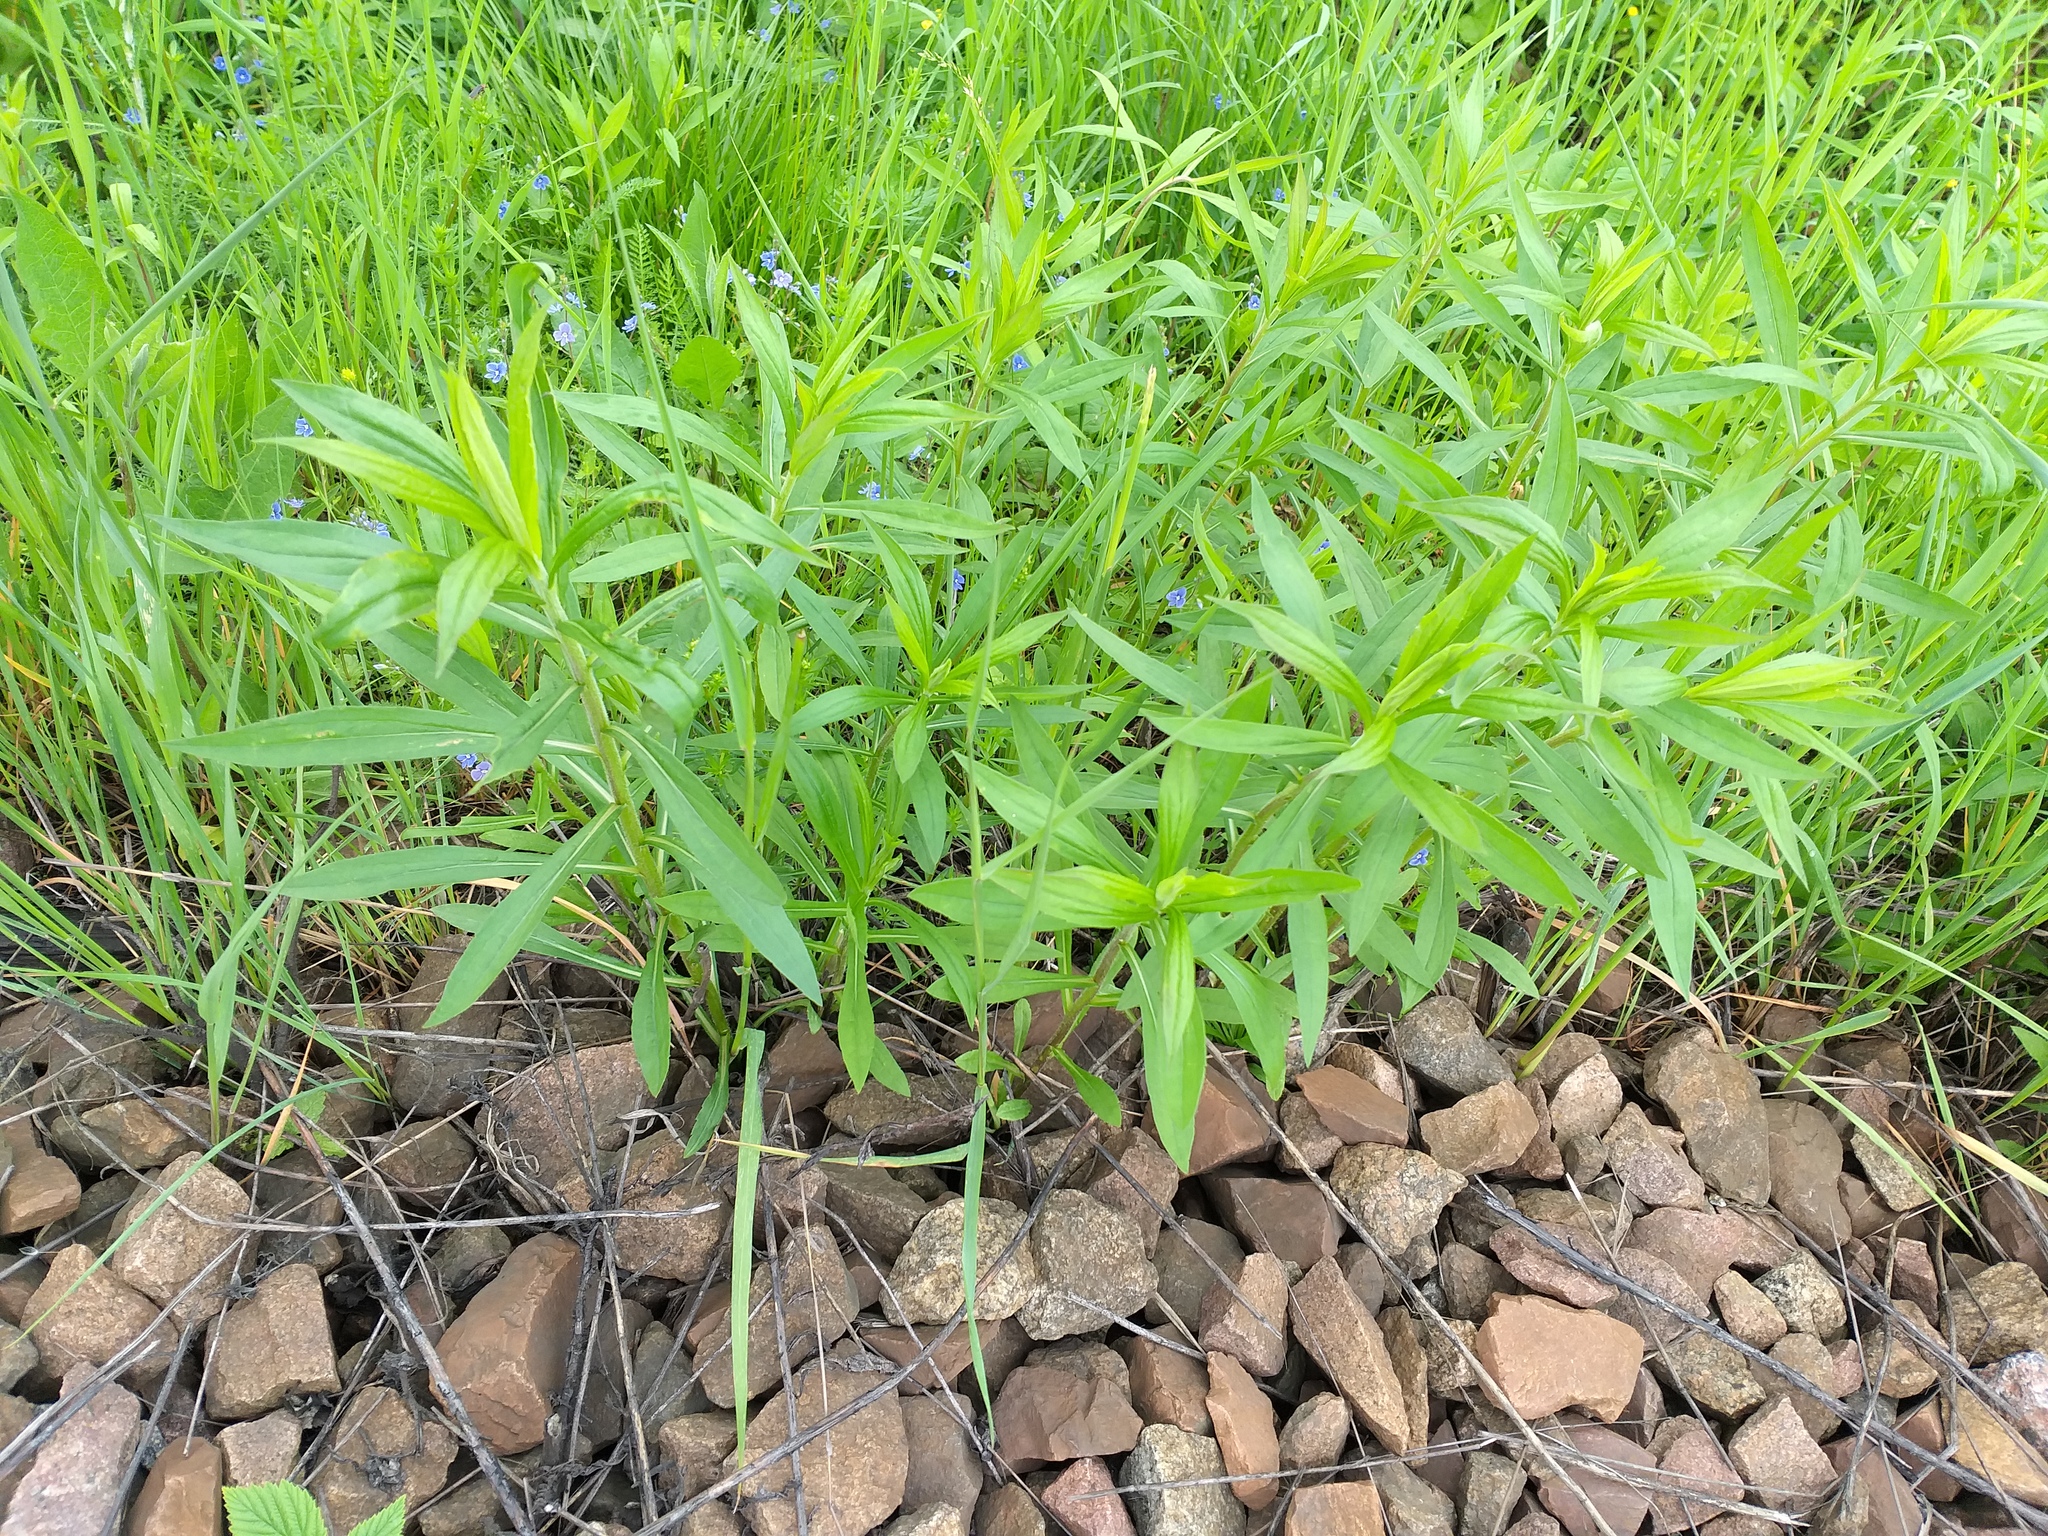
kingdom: Plantae
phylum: Tracheophyta
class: Magnoliopsida
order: Asterales
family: Asteraceae
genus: Solidago
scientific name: Solidago canadensis
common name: Canada goldenrod
